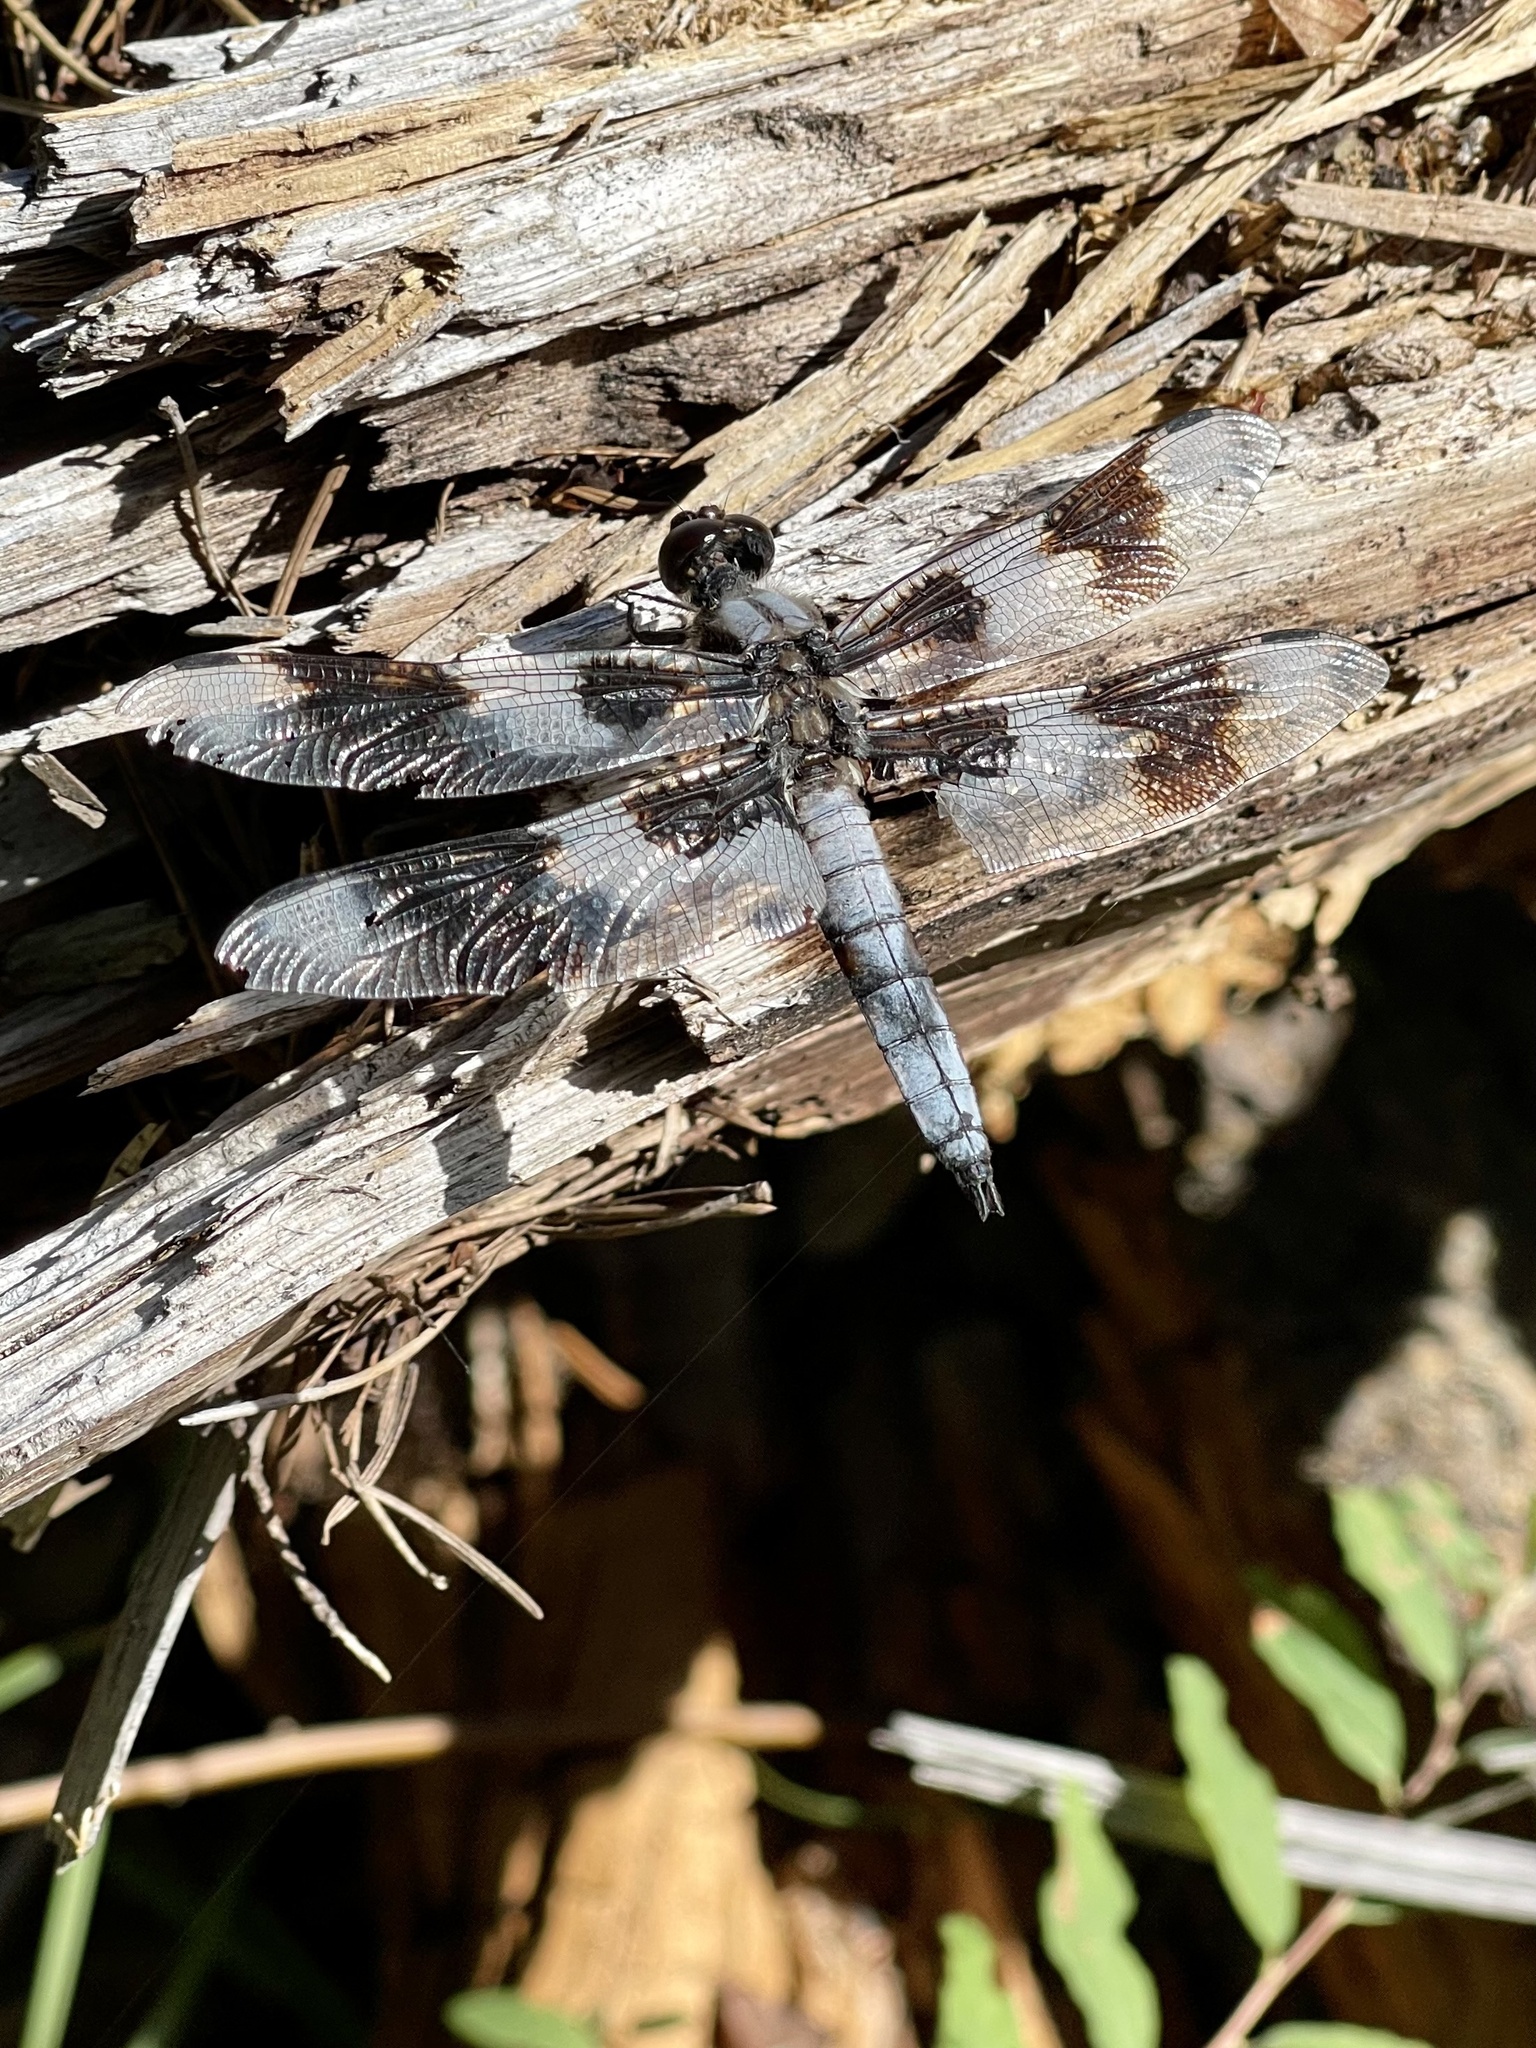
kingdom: Animalia
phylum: Arthropoda
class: Insecta
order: Odonata
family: Libellulidae
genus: Libellula
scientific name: Libellula forensis
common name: Eight-spotted skimmer
